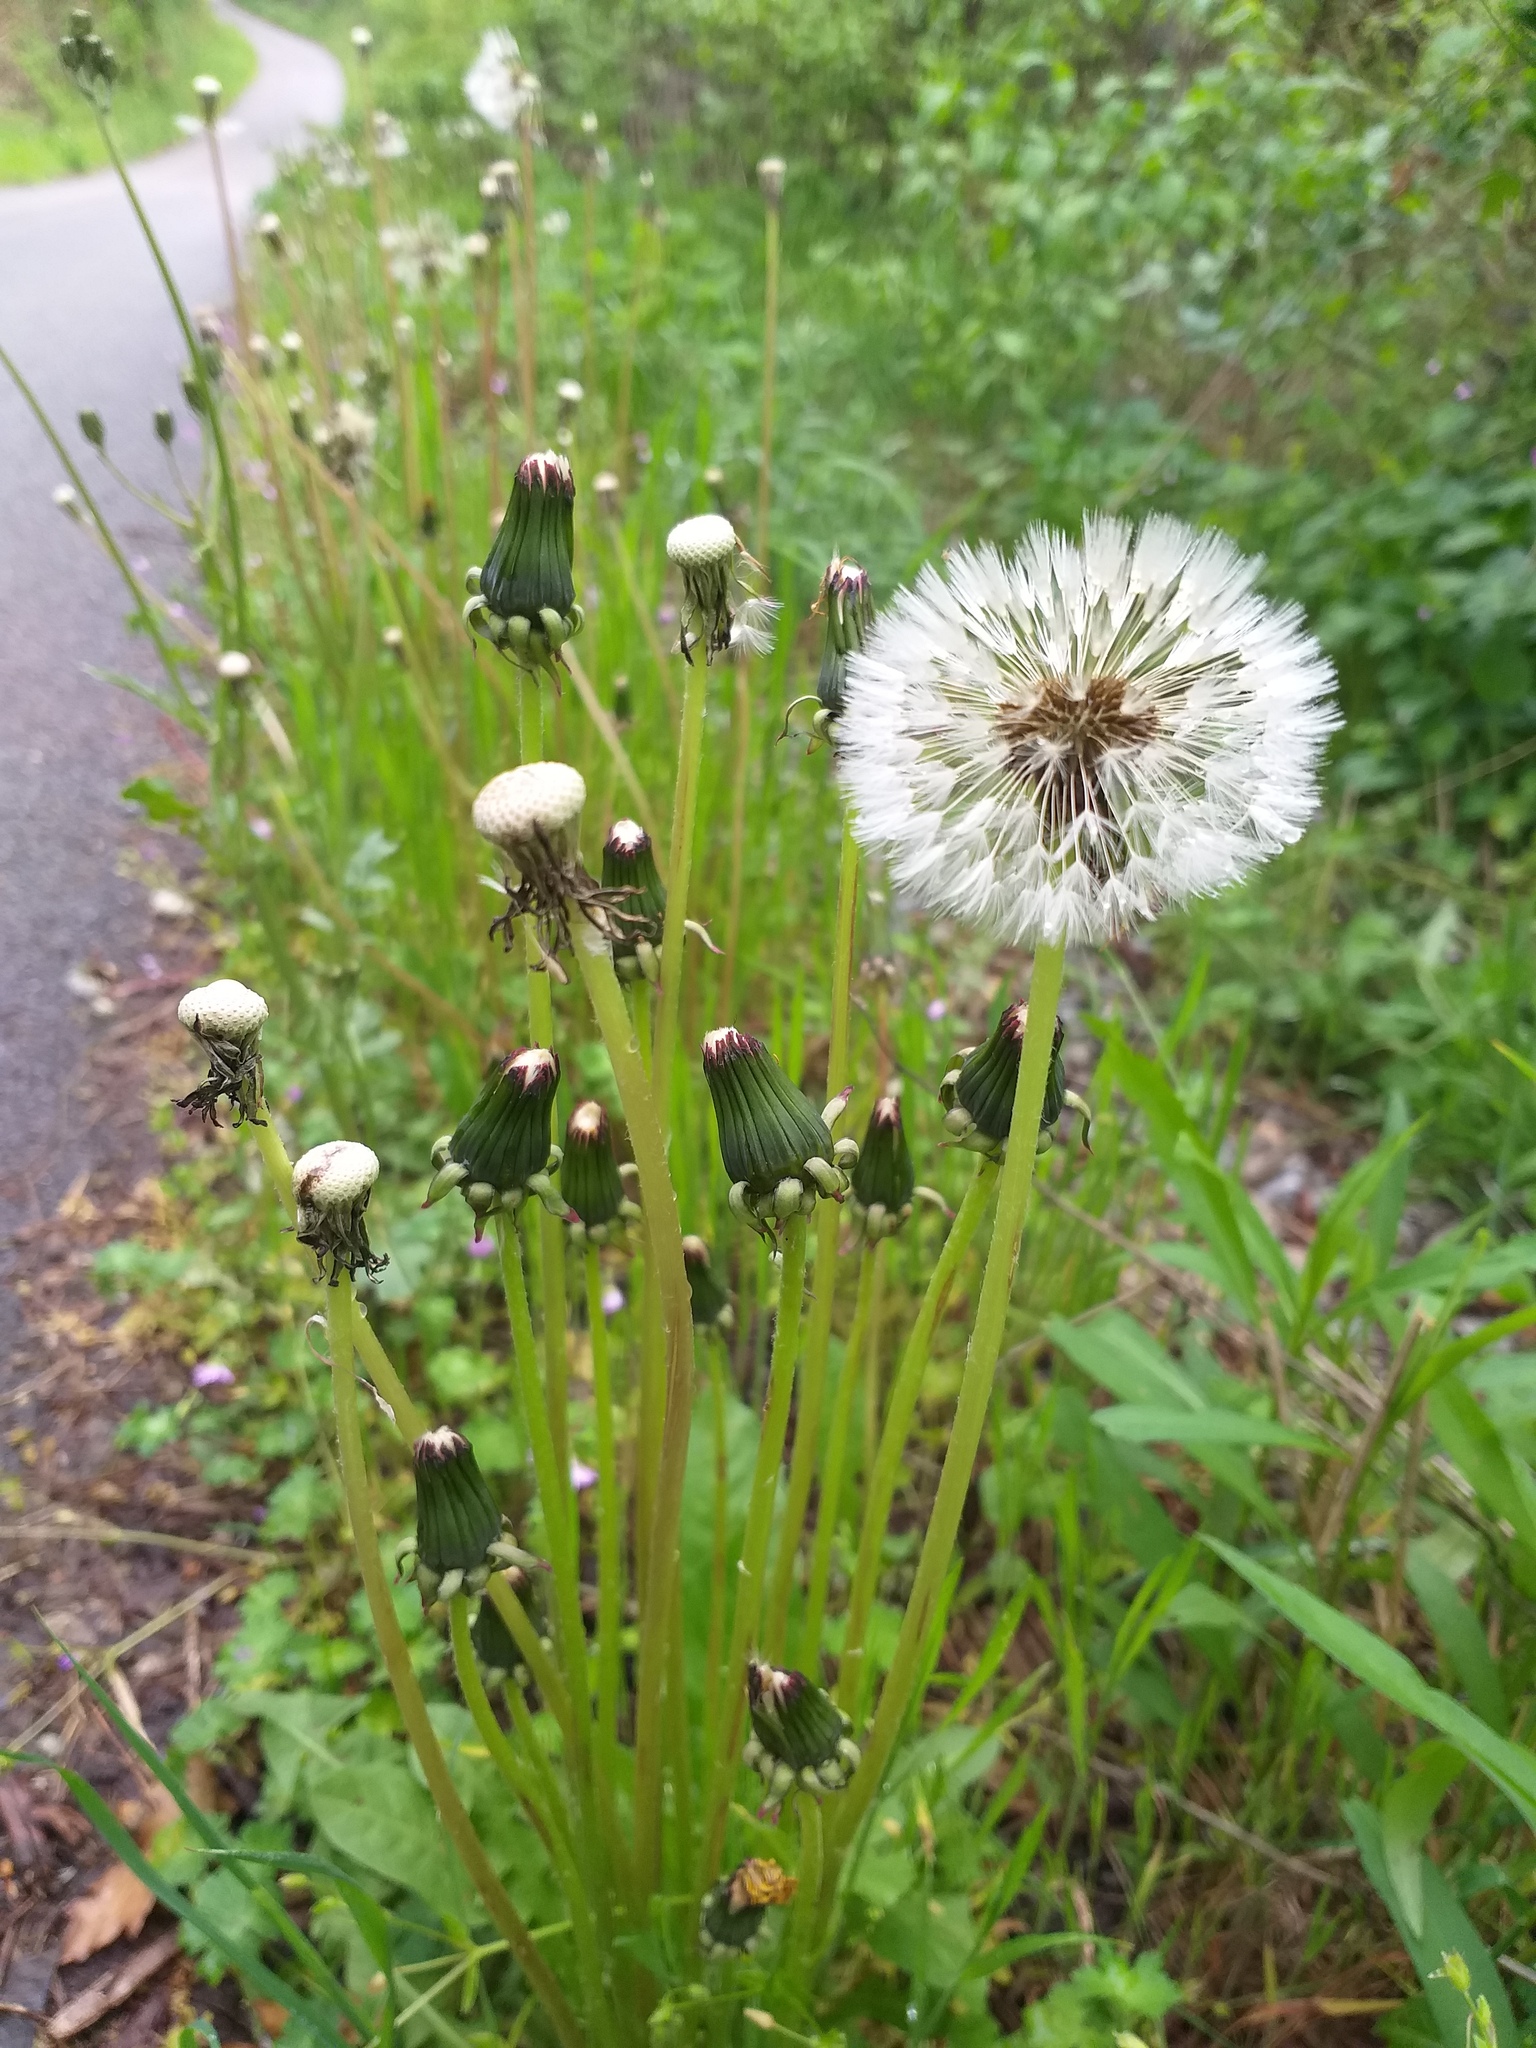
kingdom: Plantae
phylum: Tracheophyta
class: Magnoliopsida
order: Asterales
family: Asteraceae
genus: Taraxacum
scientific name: Taraxacum officinale
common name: Common dandelion
